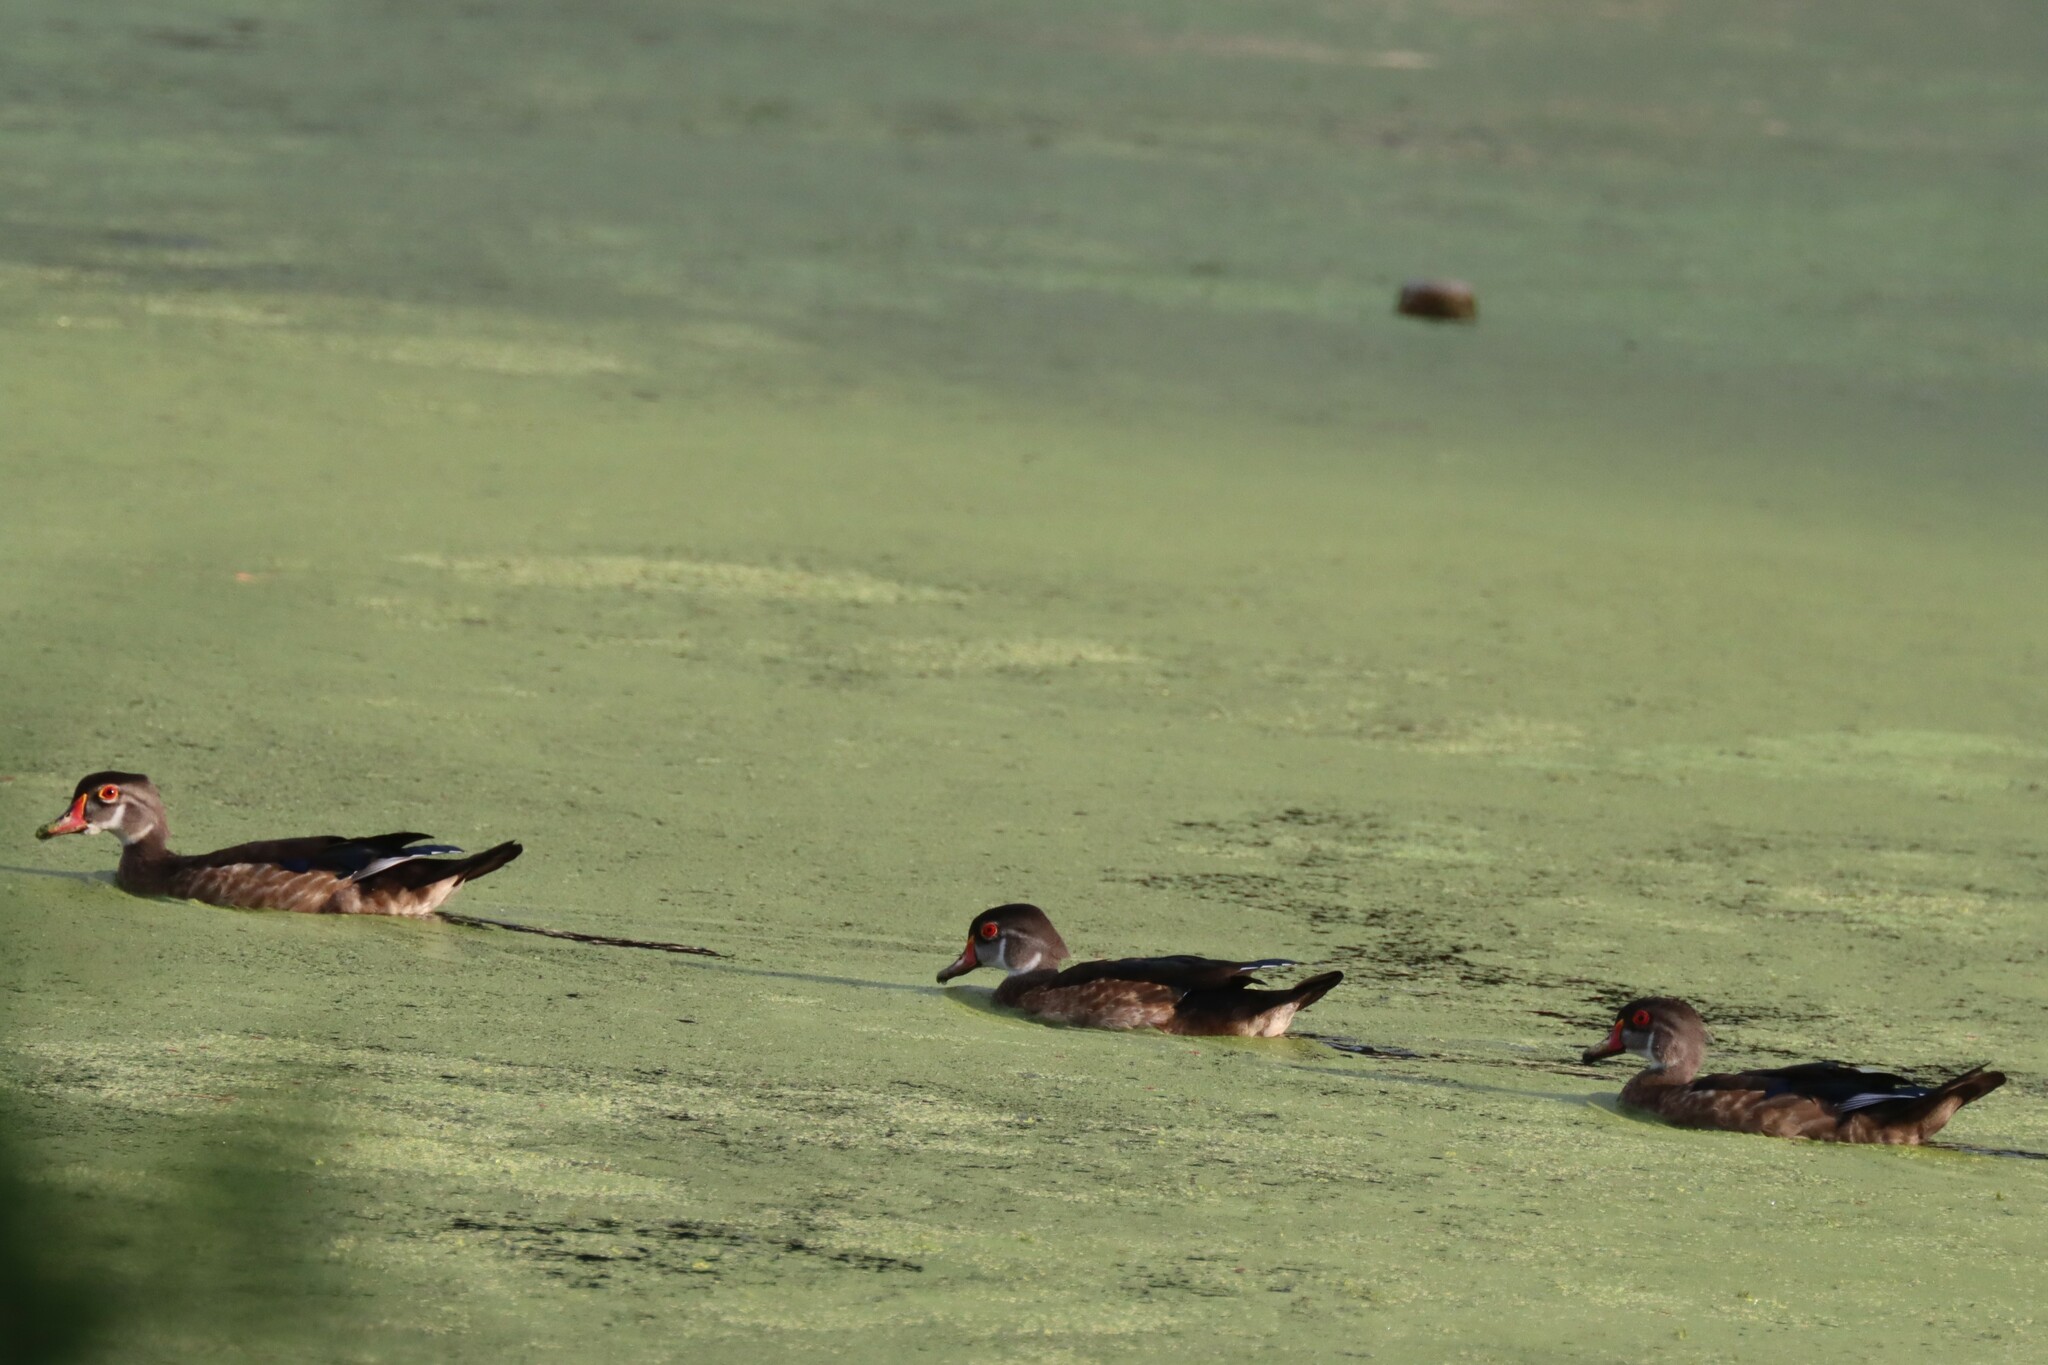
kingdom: Animalia
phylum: Chordata
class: Aves
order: Anseriformes
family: Anatidae
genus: Aix
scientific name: Aix sponsa
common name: Wood duck
